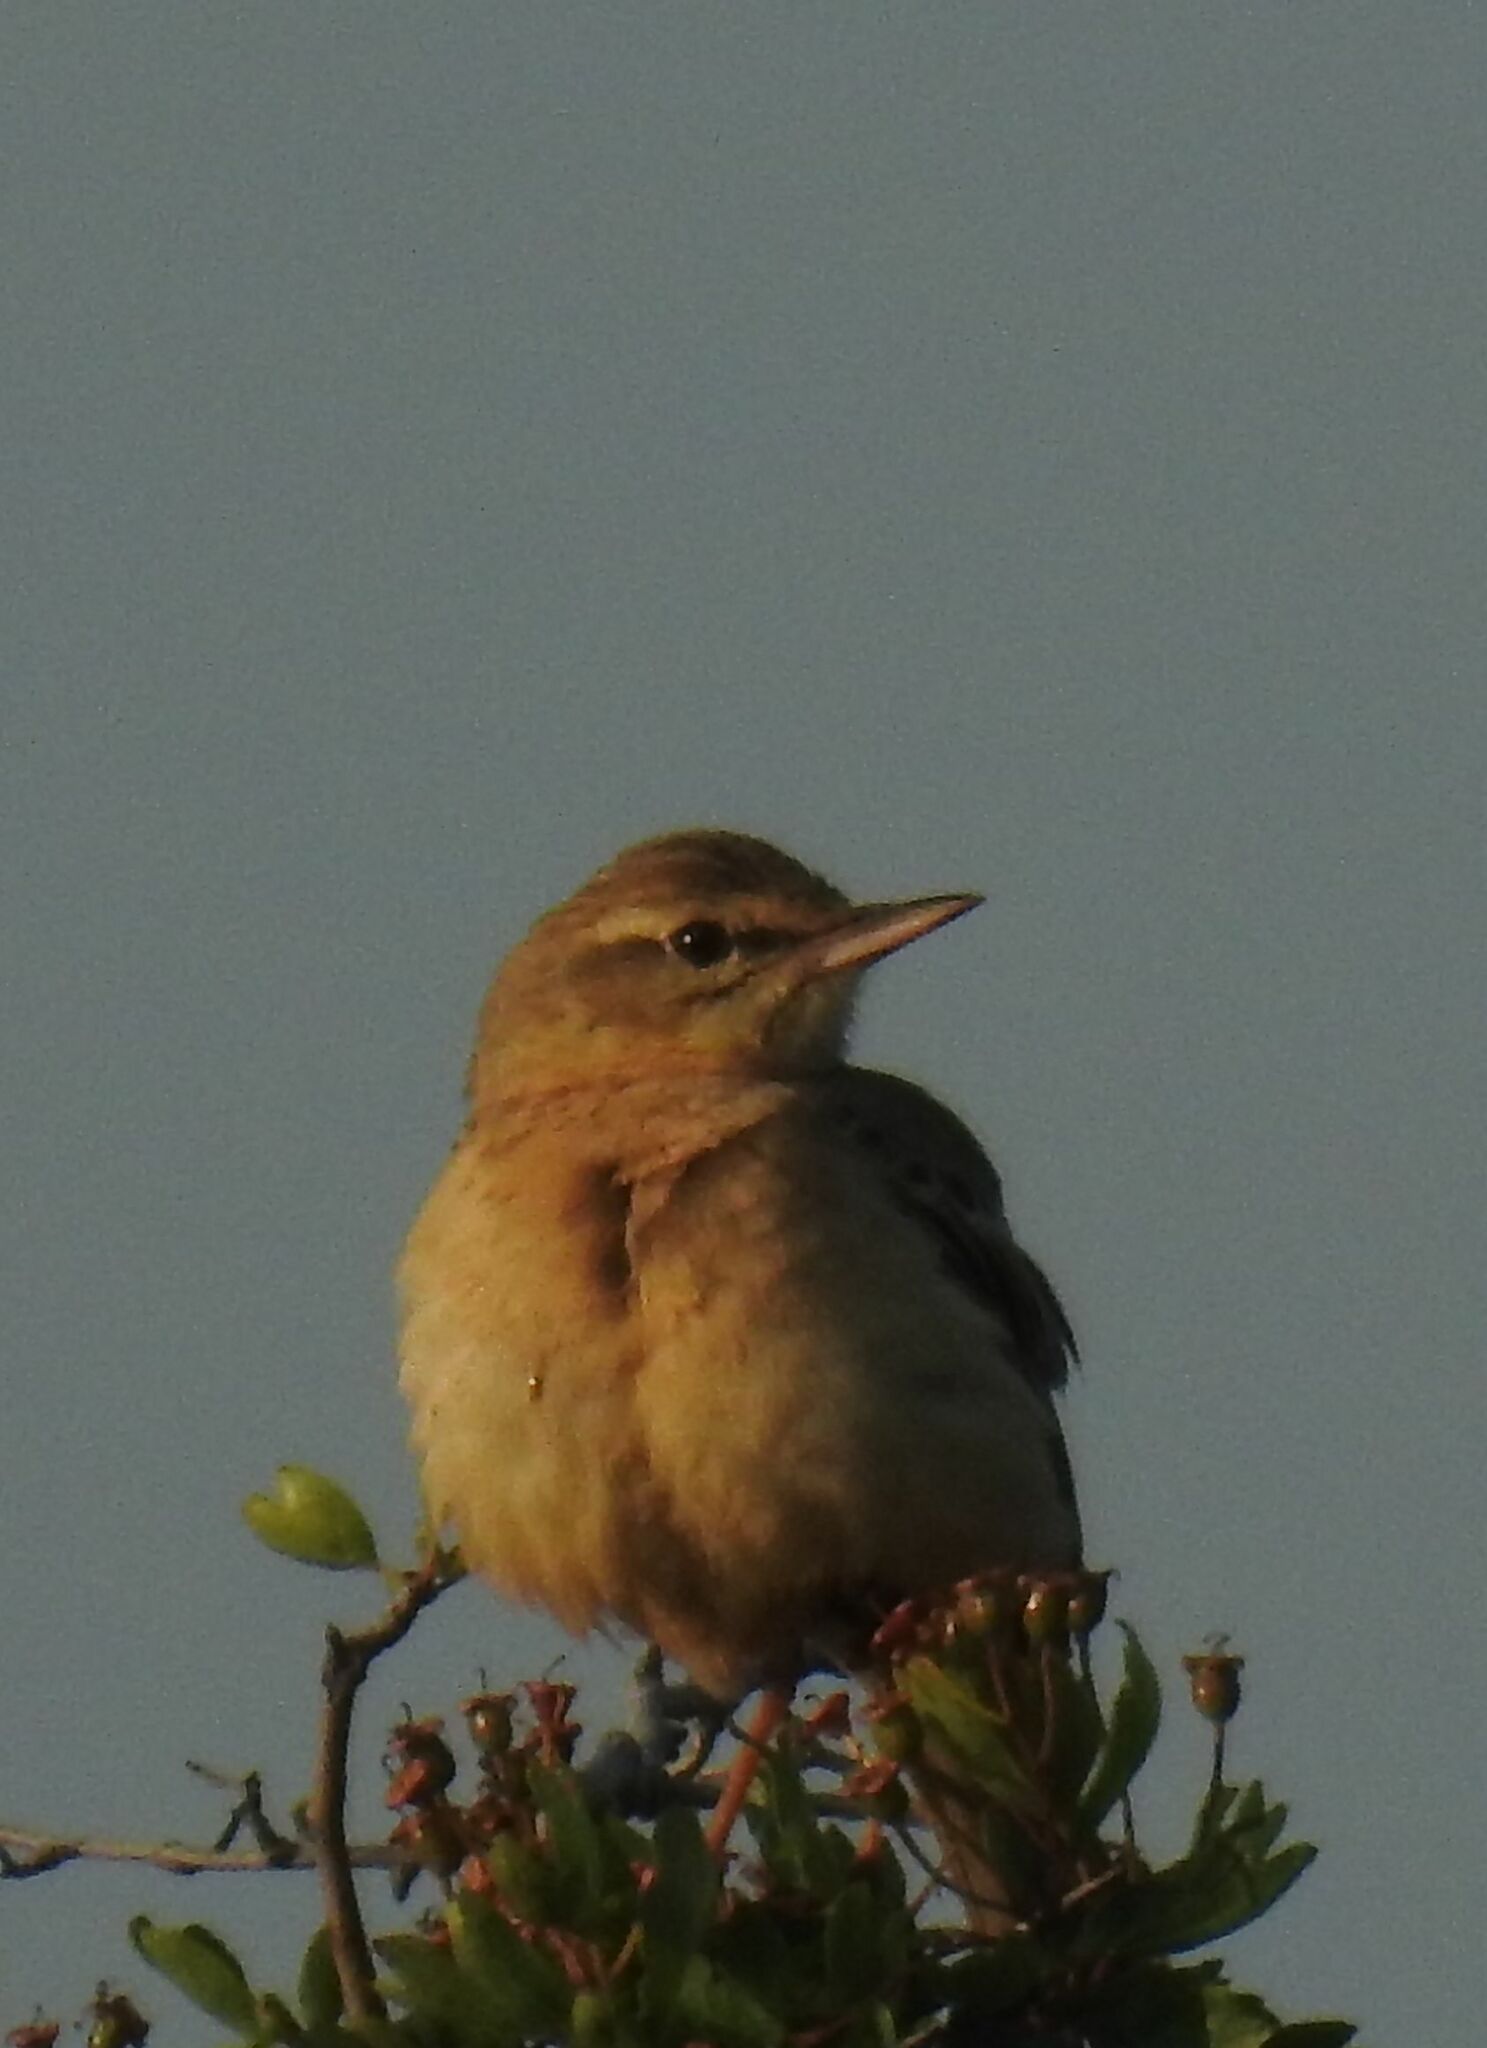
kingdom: Animalia
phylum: Chordata
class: Aves
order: Passeriformes
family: Motacillidae
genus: Anthus
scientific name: Anthus campestris
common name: Tawny pipit
